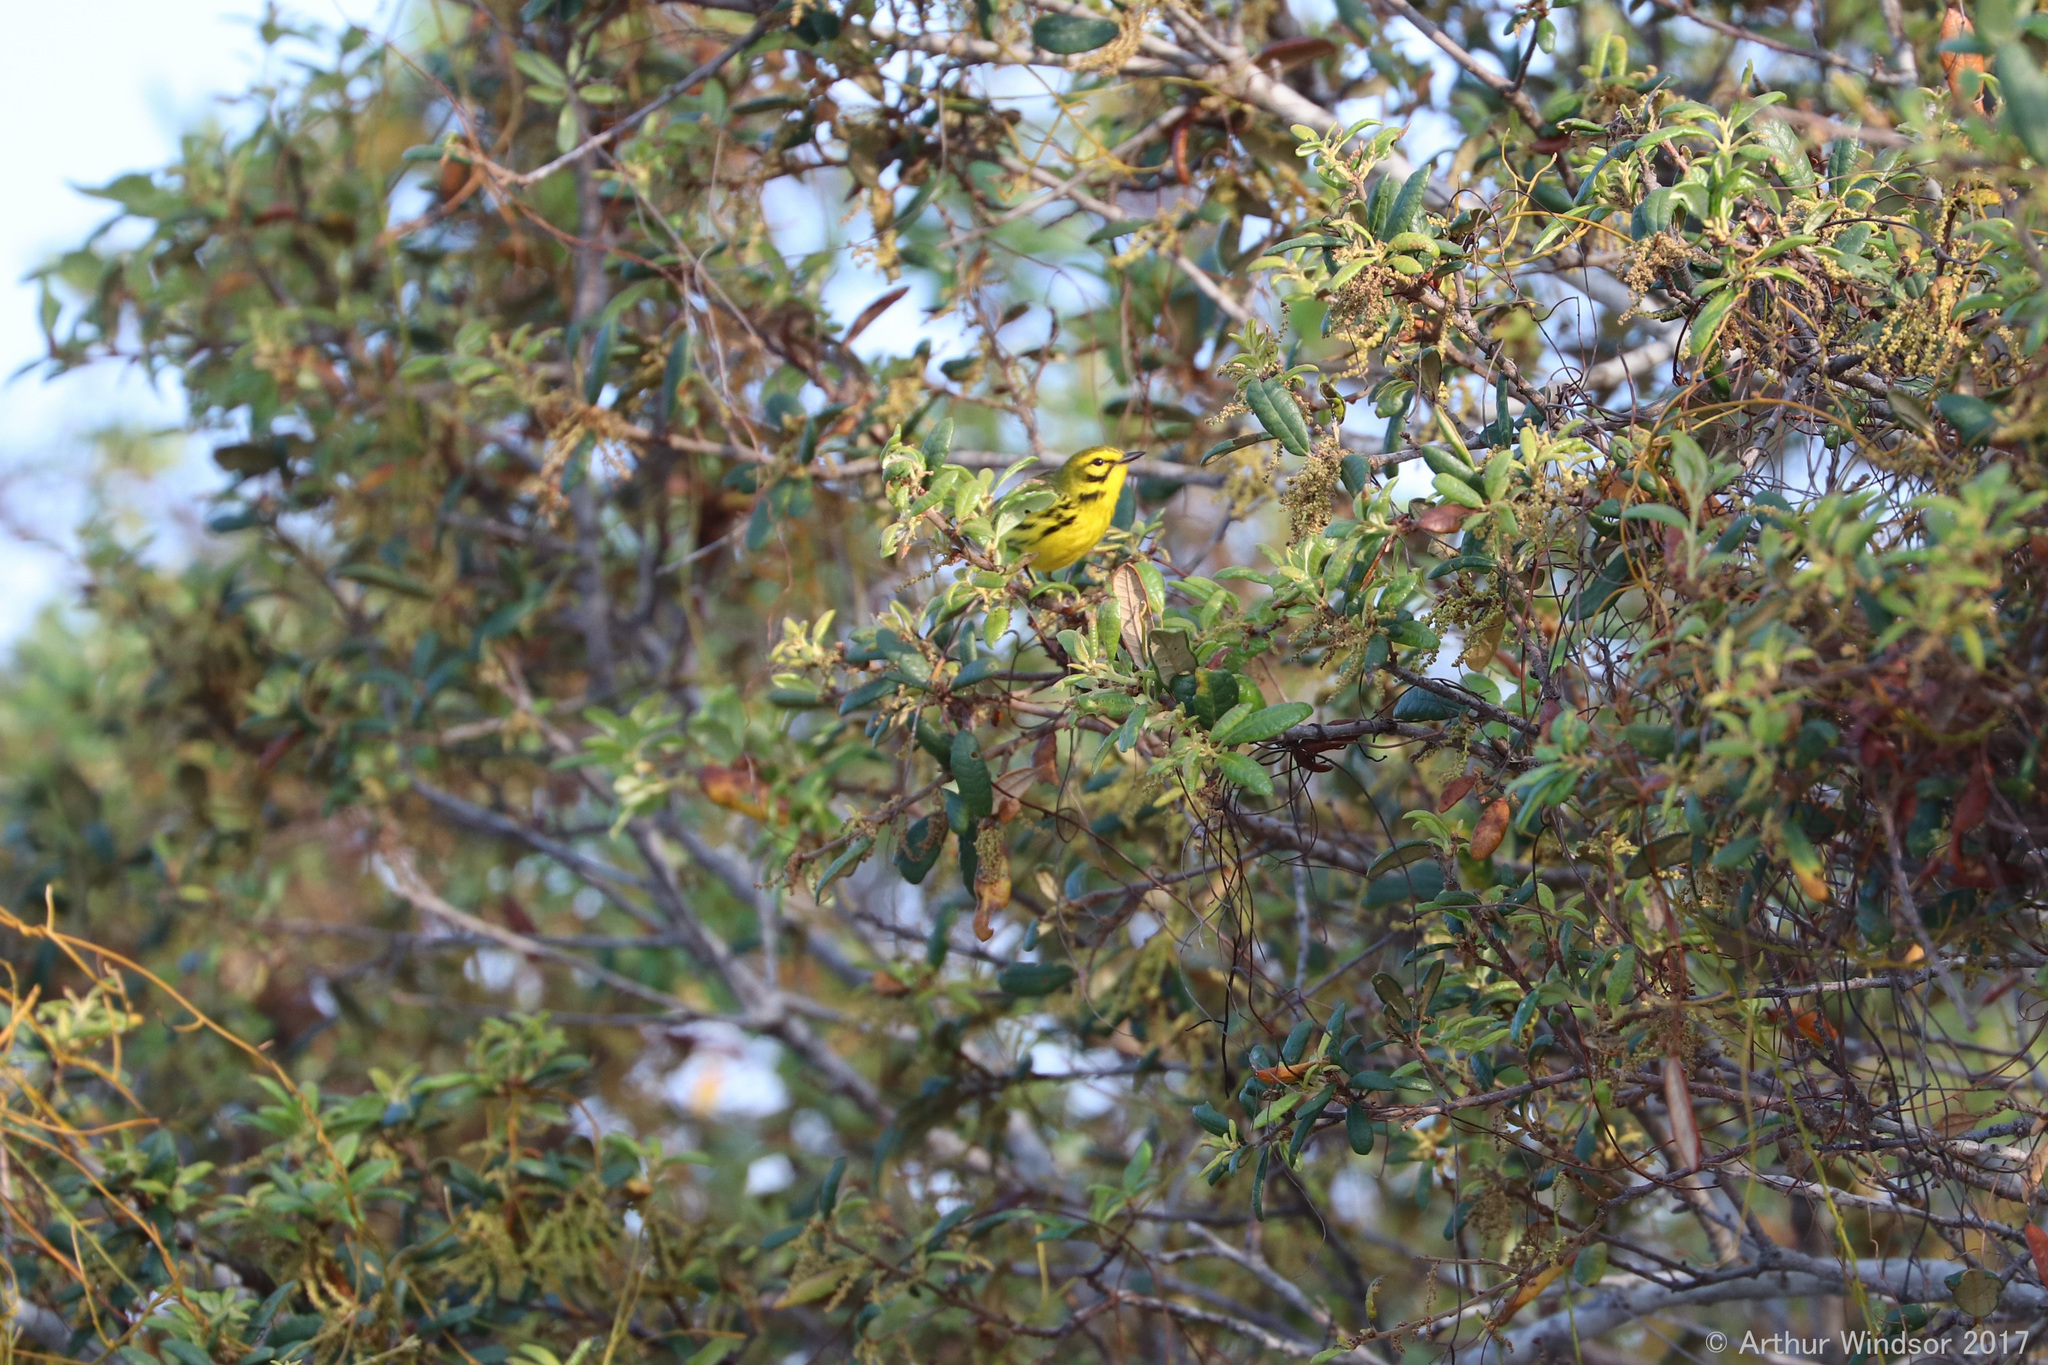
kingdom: Animalia
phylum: Chordata
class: Aves
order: Passeriformes
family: Parulidae
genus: Setophaga
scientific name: Setophaga discolor
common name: Prairie warbler
